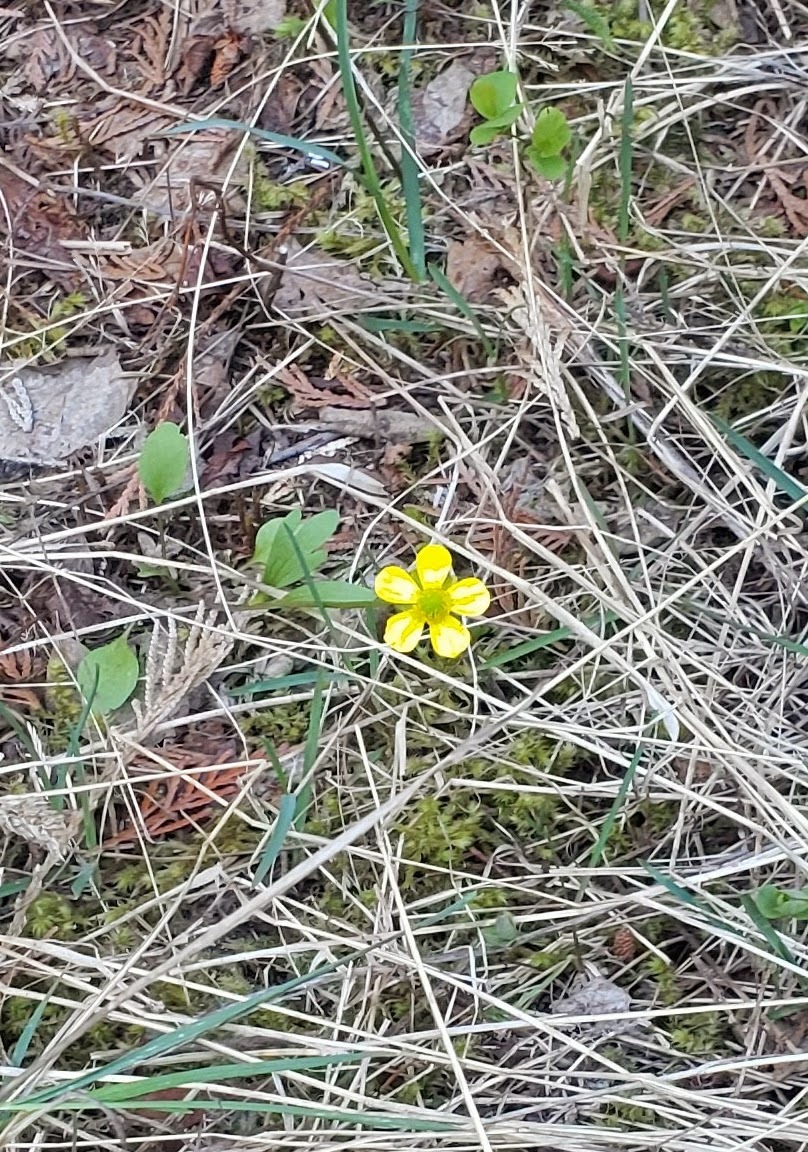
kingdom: Plantae
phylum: Tracheophyta
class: Magnoliopsida
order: Ranunculales
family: Ranunculaceae
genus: Ranunculus
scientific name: Ranunculus glaberrimus
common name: Sagebrush buttercup
